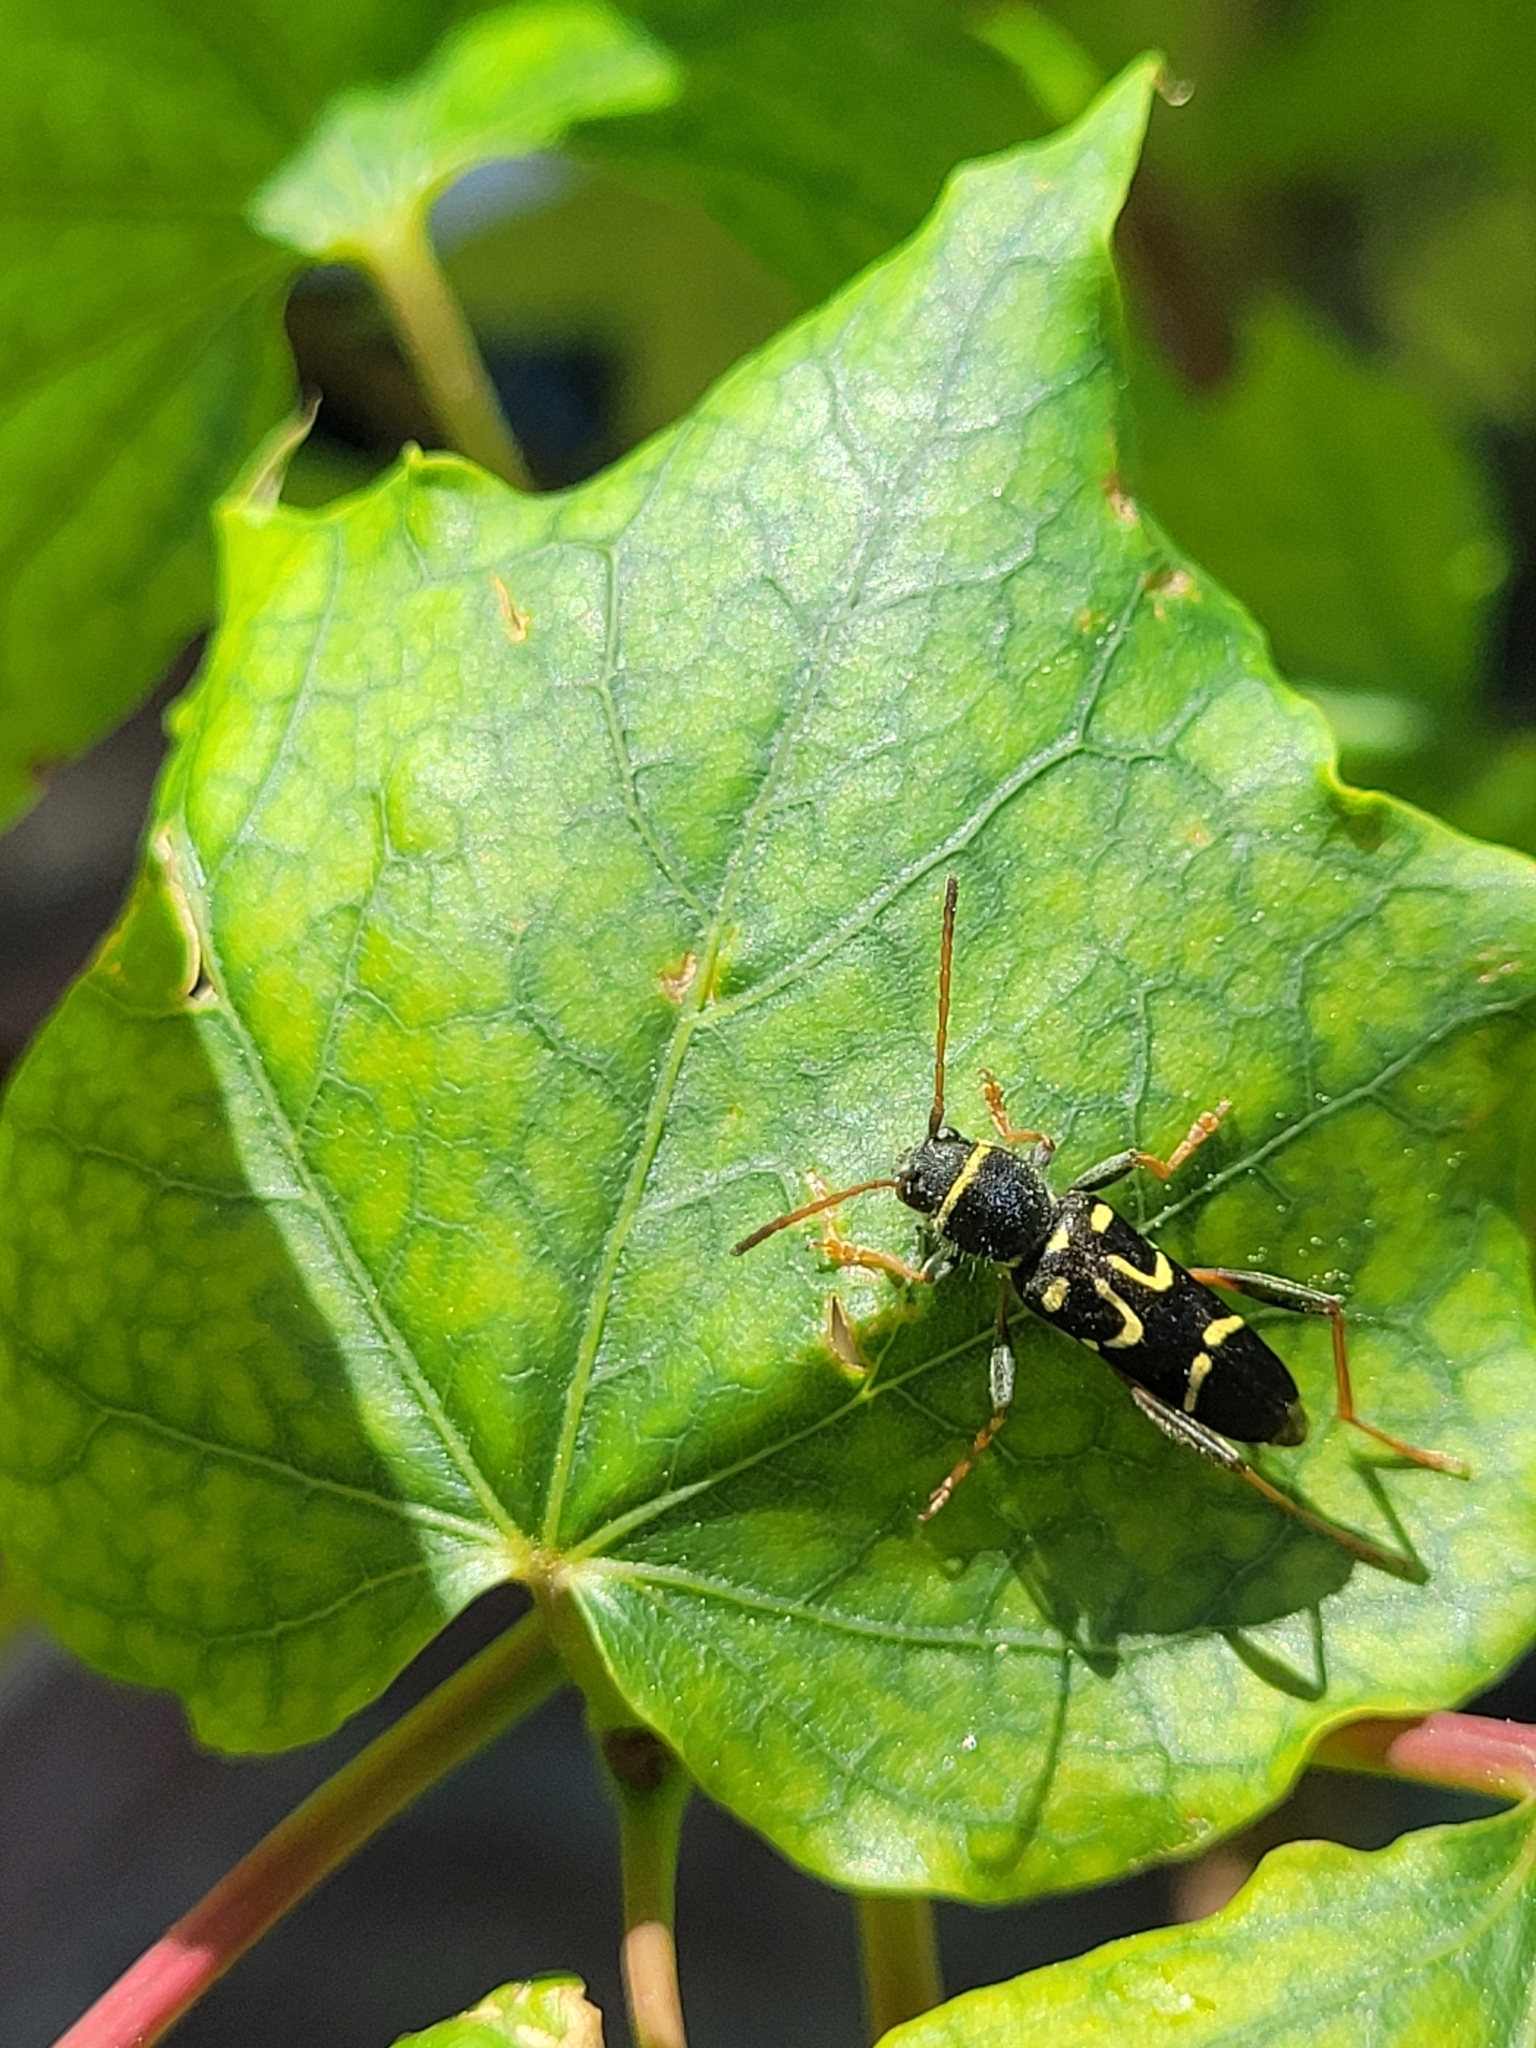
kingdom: Animalia
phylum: Arthropoda
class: Insecta
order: Coleoptera
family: Cerambycidae
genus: Clytus
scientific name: Clytus ruricola
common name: Round-necked longhorn beetle
